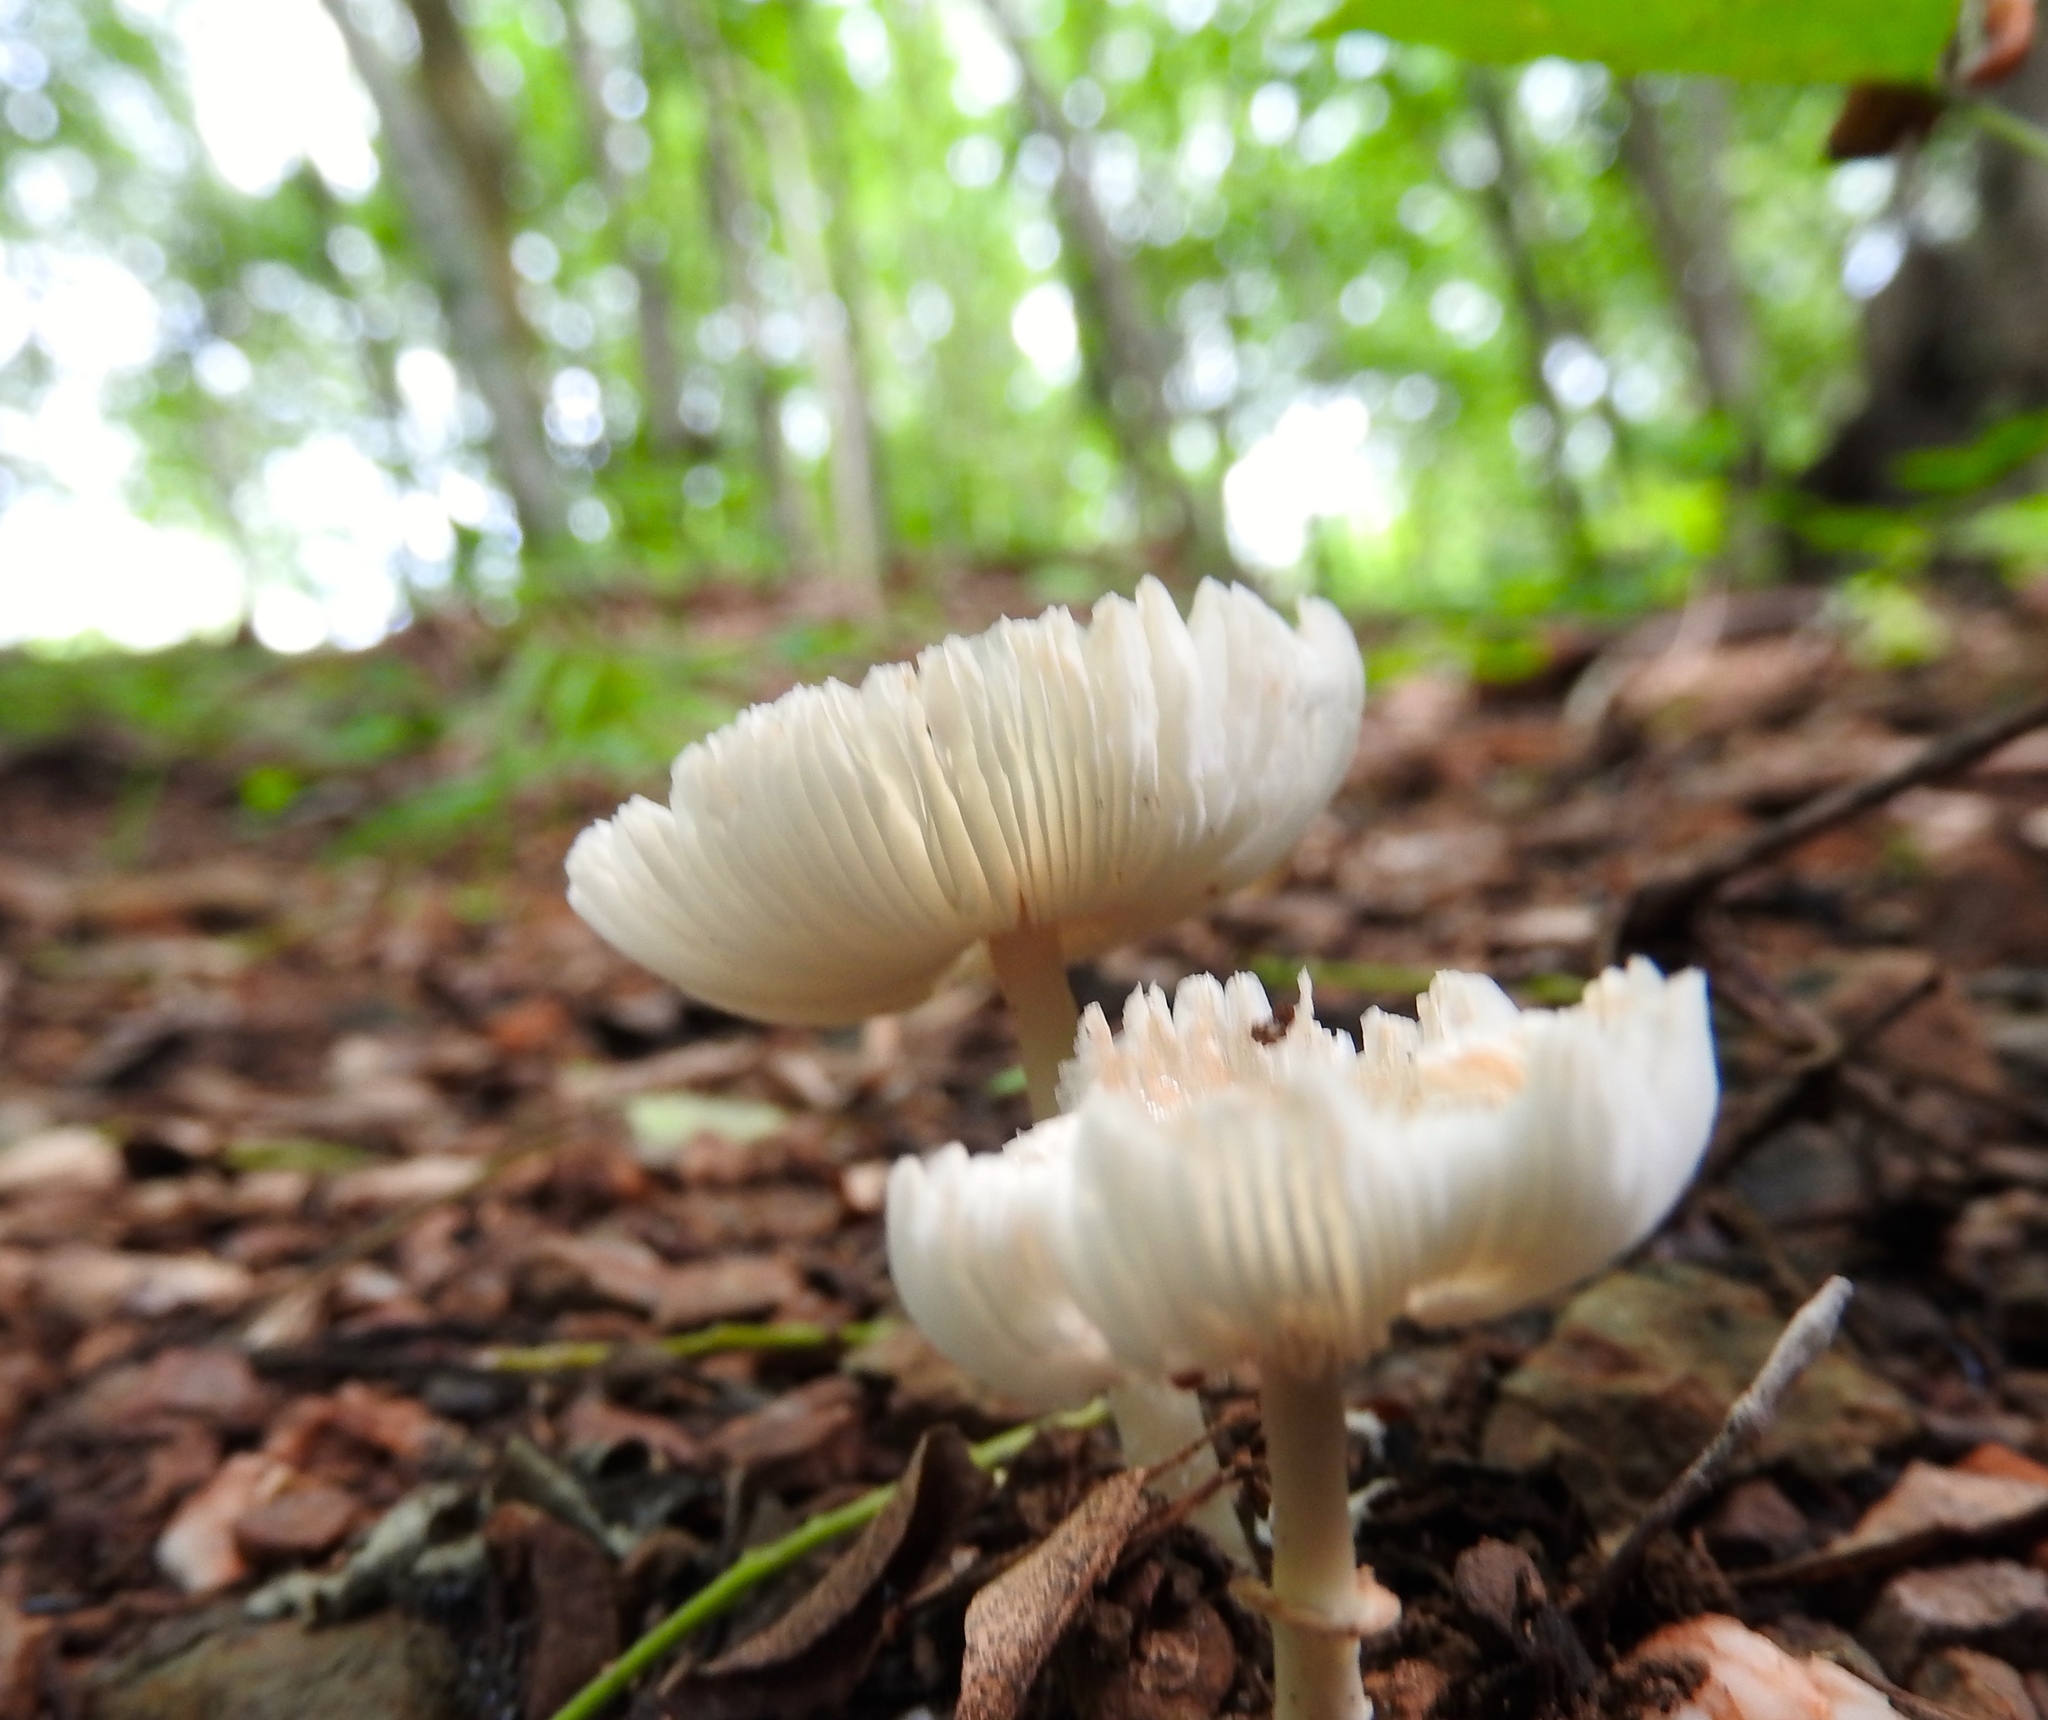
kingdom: Fungi
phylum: Basidiomycota
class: Agaricomycetes
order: Agaricales
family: Agaricaceae
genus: Lepiota
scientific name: Lepiota
